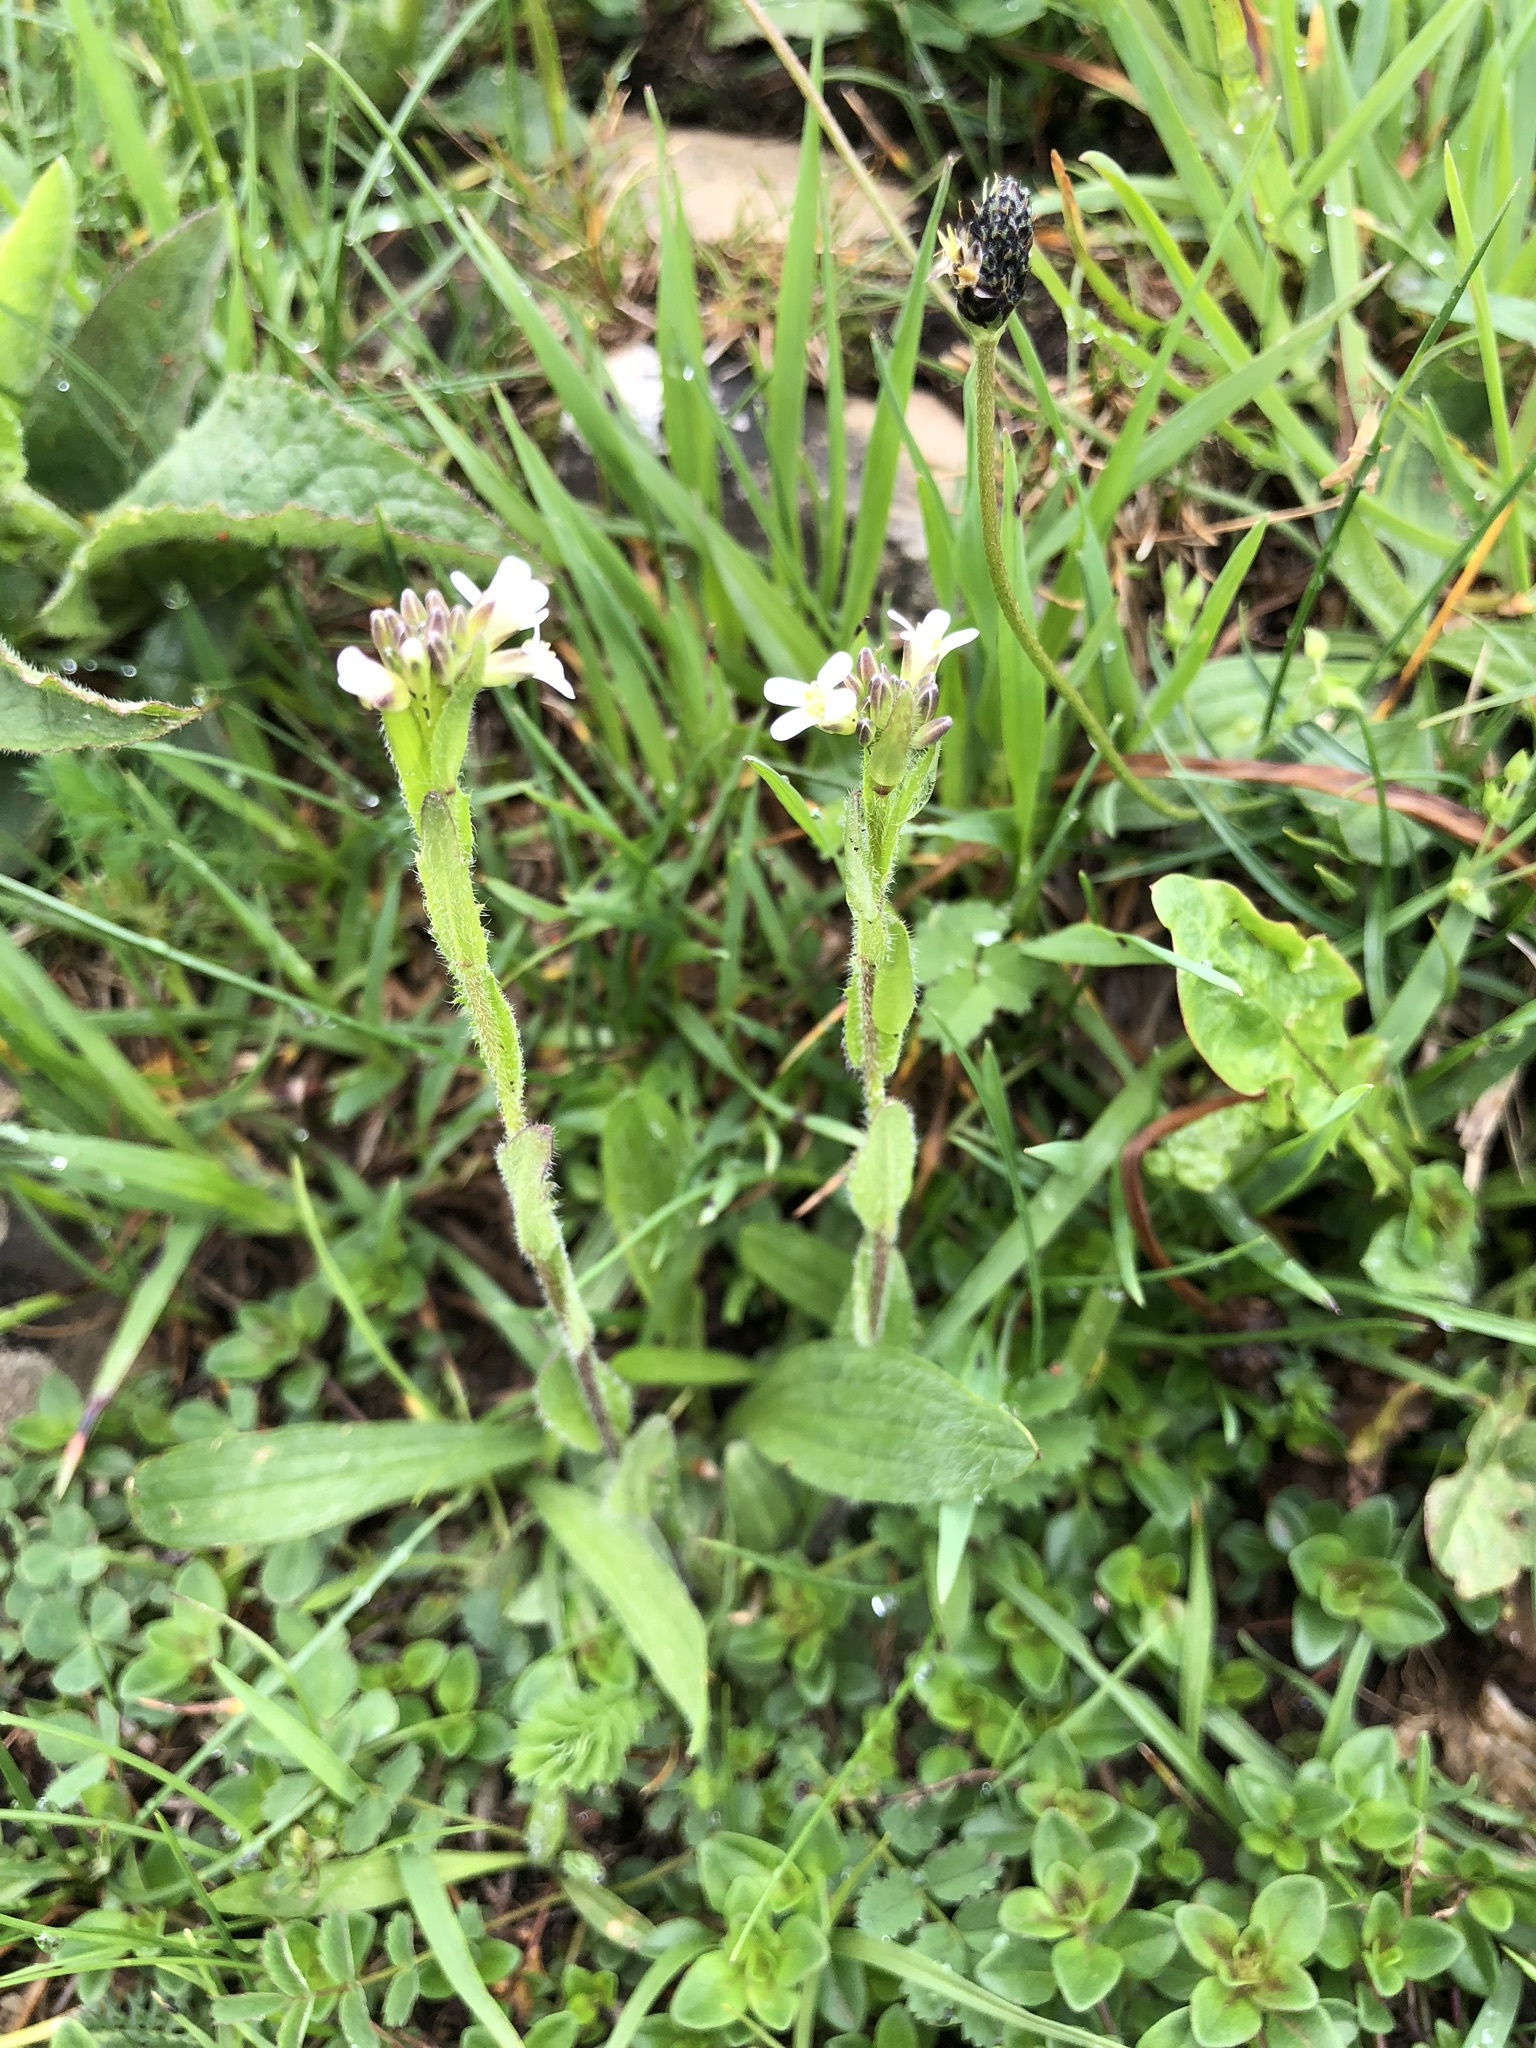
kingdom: Plantae
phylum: Tracheophyta
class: Magnoliopsida
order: Brassicales
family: Brassicaceae
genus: Arabis
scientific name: Arabis hirsuta
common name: Hairy rock-cress
